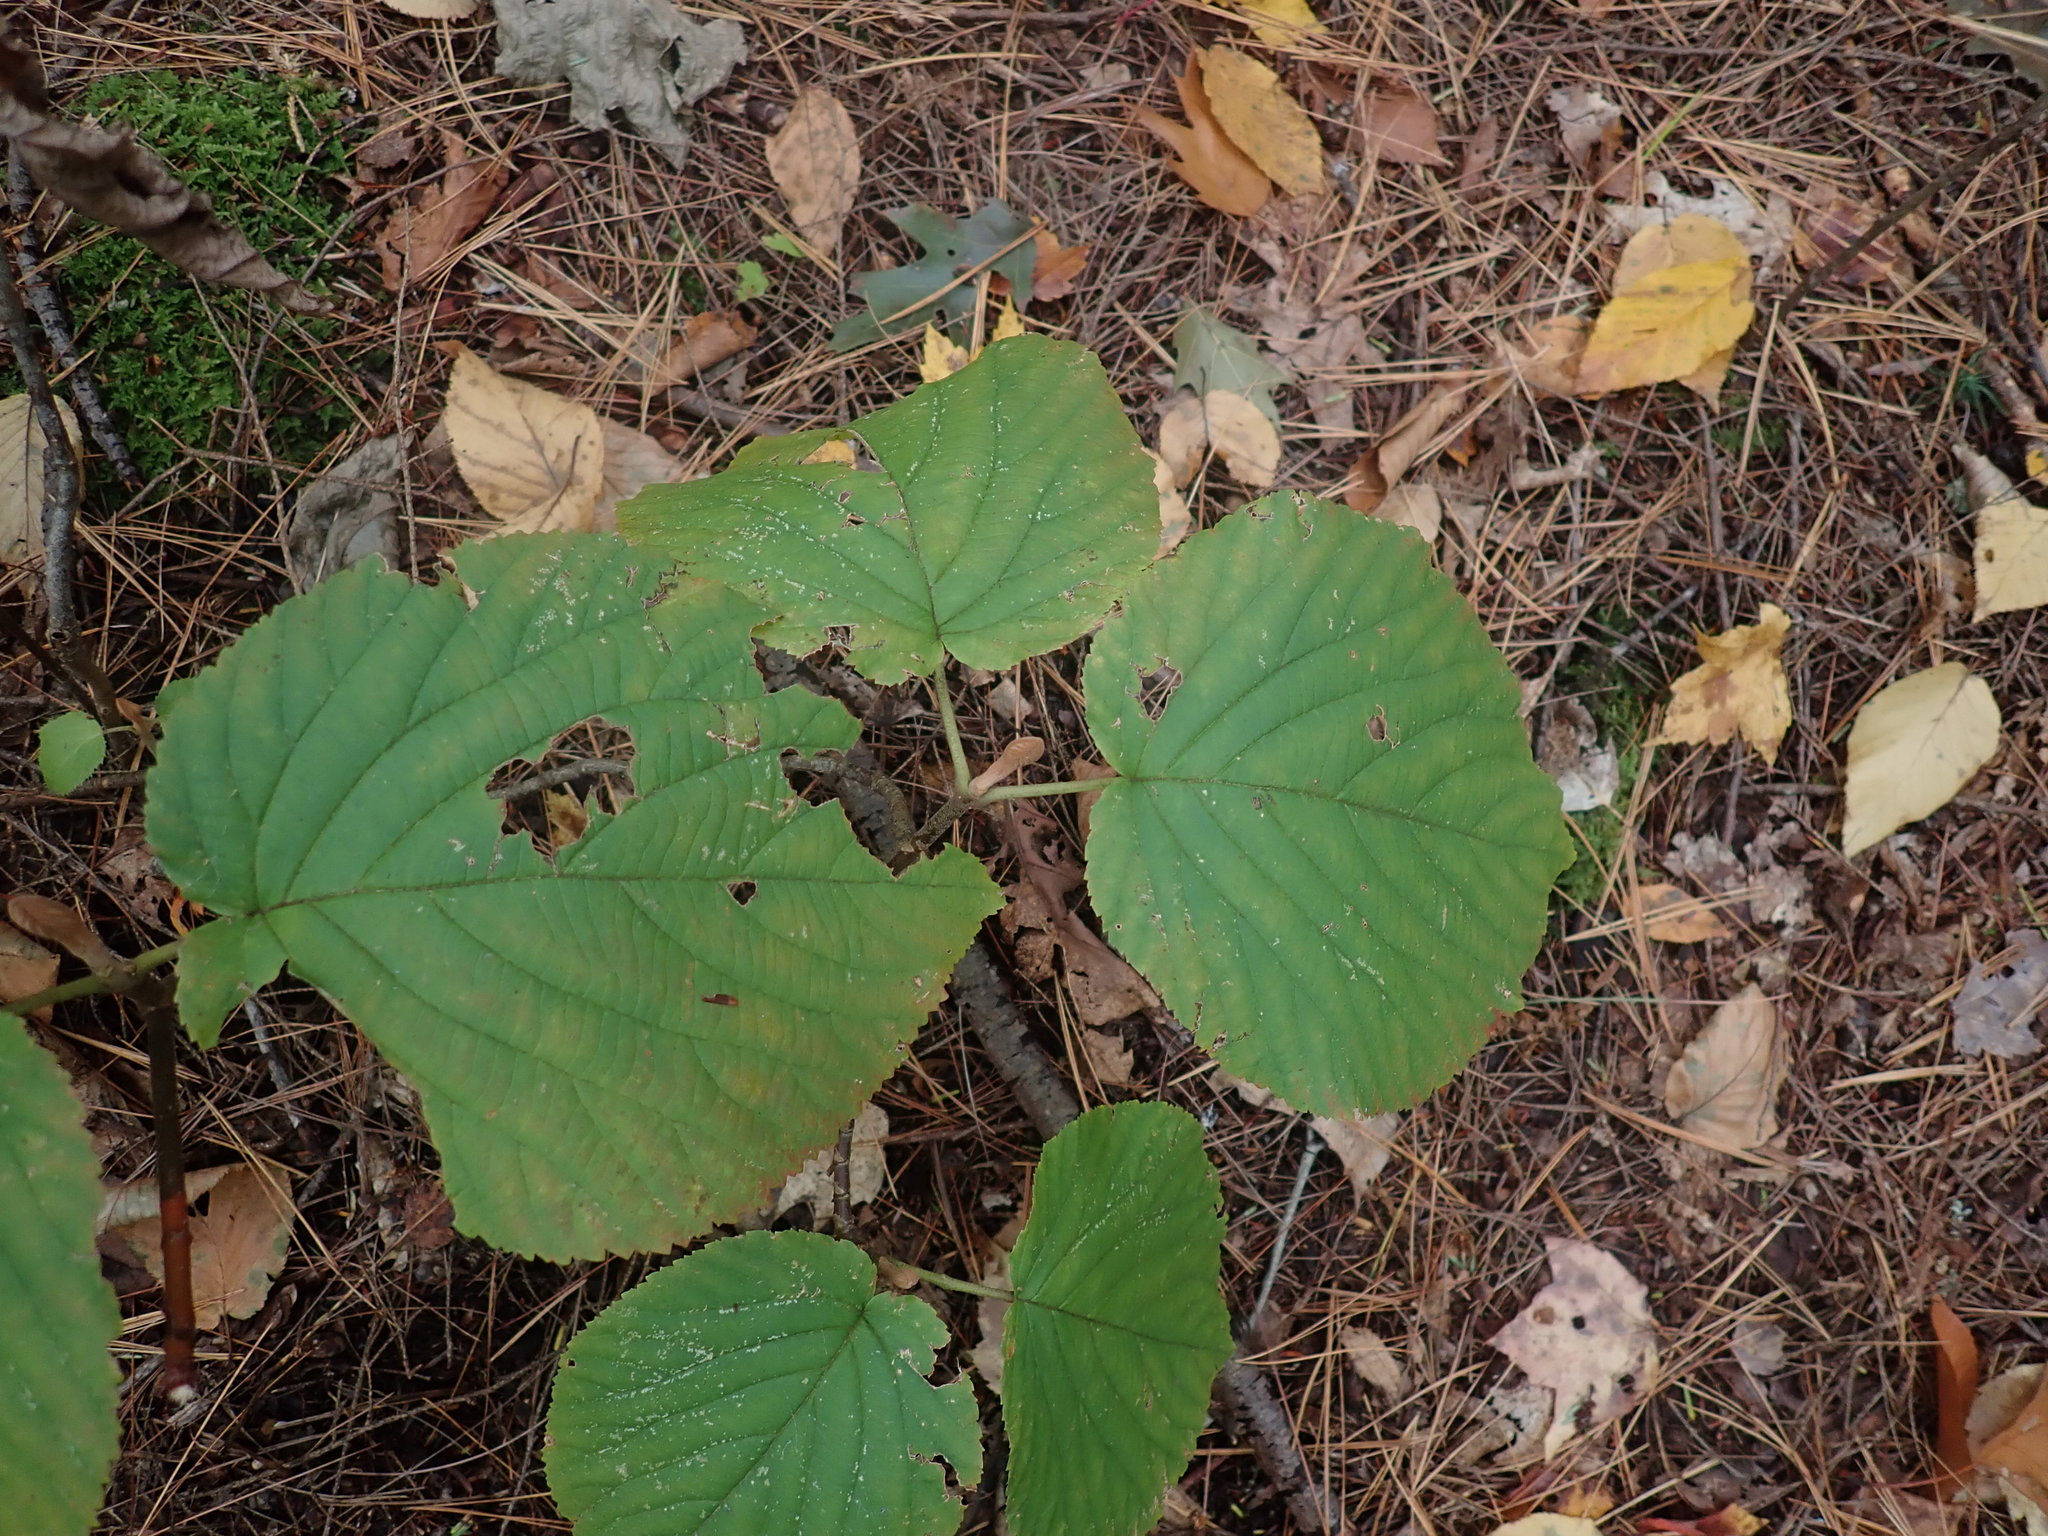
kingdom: Plantae
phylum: Tracheophyta
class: Magnoliopsida
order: Dipsacales
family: Viburnaceae
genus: Viburnum
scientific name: Viburnum lantanoides
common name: Hobblebush
